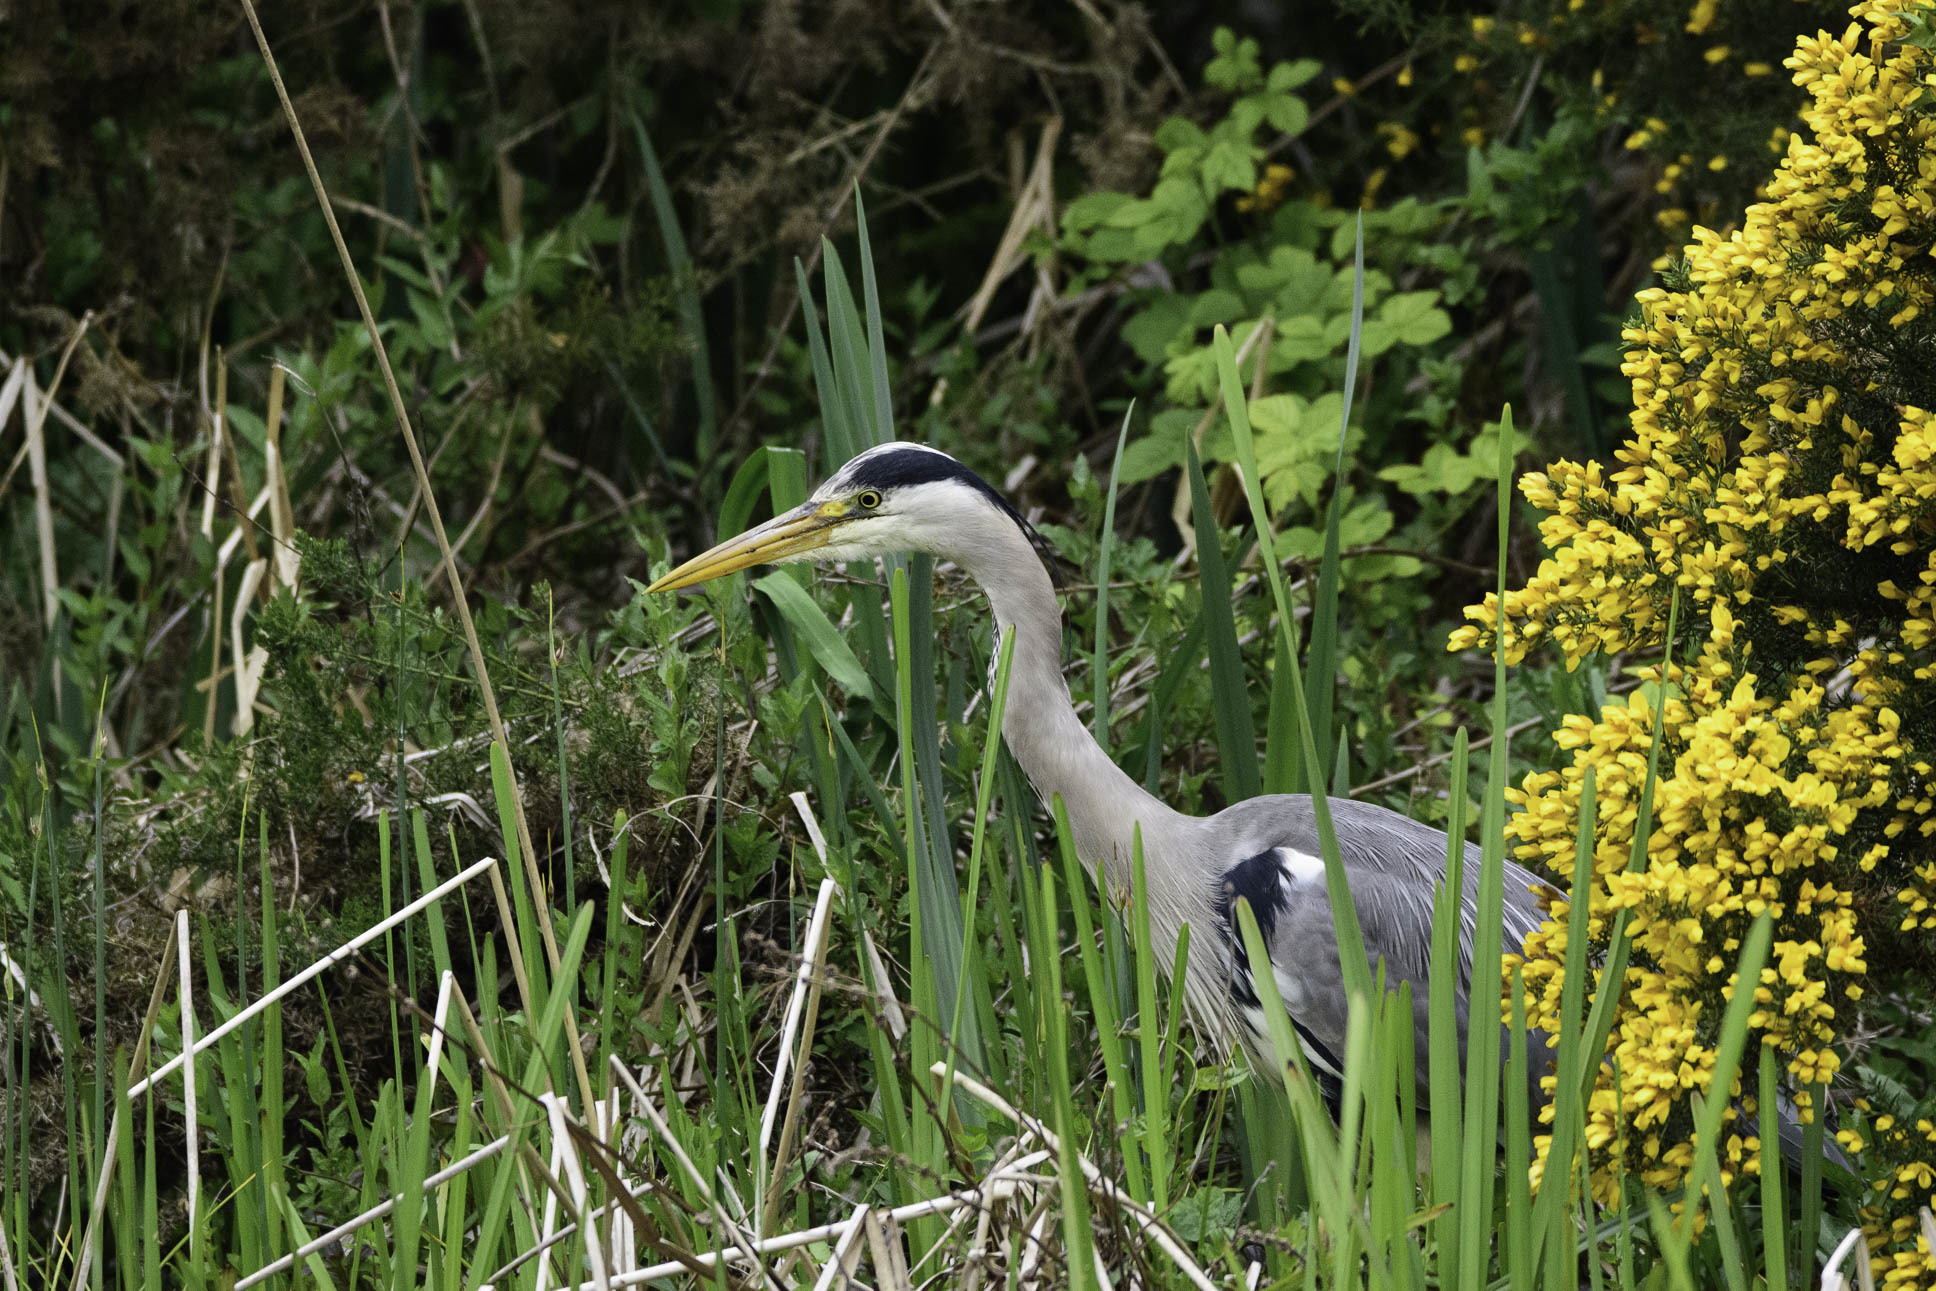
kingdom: Animalia
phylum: Chordata
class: Aves
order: Pelecaniformes
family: Ardeidae
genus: Ardea
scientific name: Ardea cinerea
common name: Grey heron
